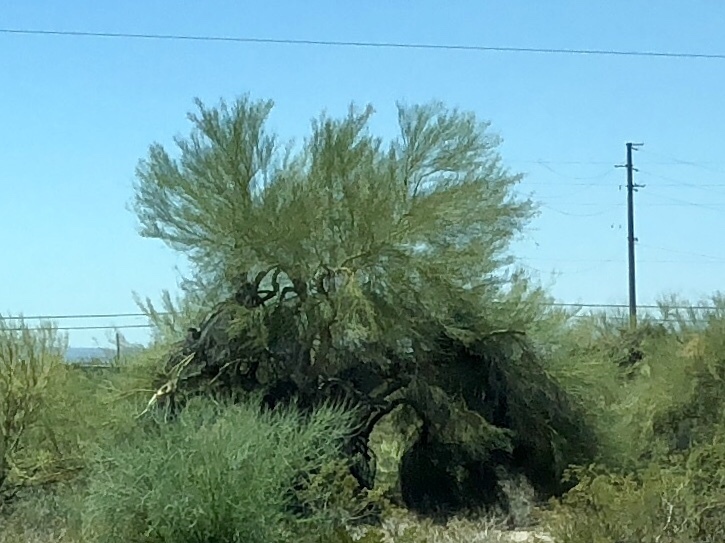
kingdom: Plantae
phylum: Tracheophyta
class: Magnoliopsida
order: Fabales
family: Fabaceae
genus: Parkinsonia
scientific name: Parkinsonia florida
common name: Blue paloverde
